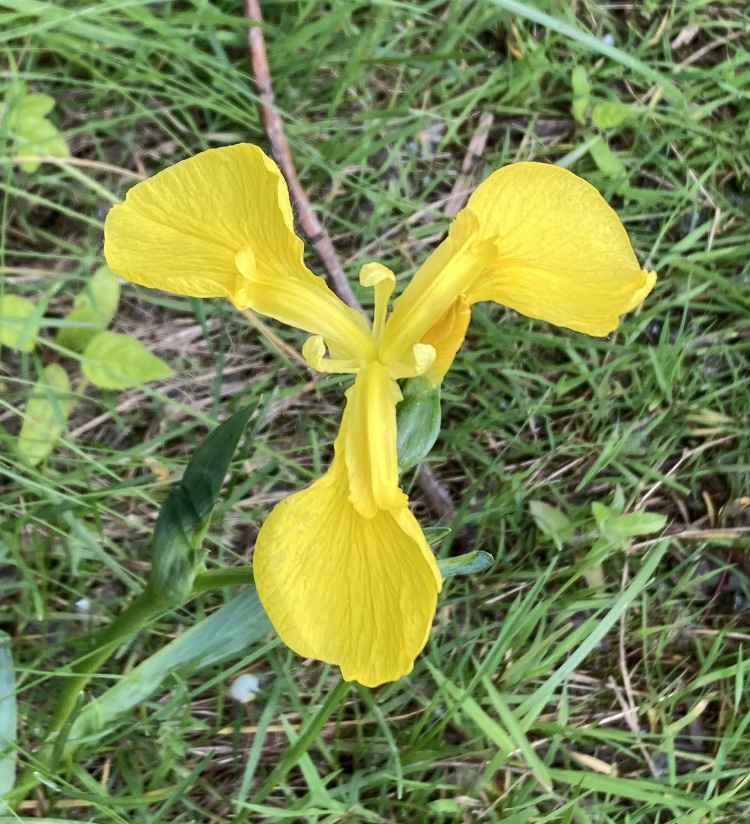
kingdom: Plantae
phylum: Tracheophyta
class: Liliopsida
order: Asparagales
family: Iridaceae
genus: Iris
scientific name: Iris pseudacorus
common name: Yellow flag
